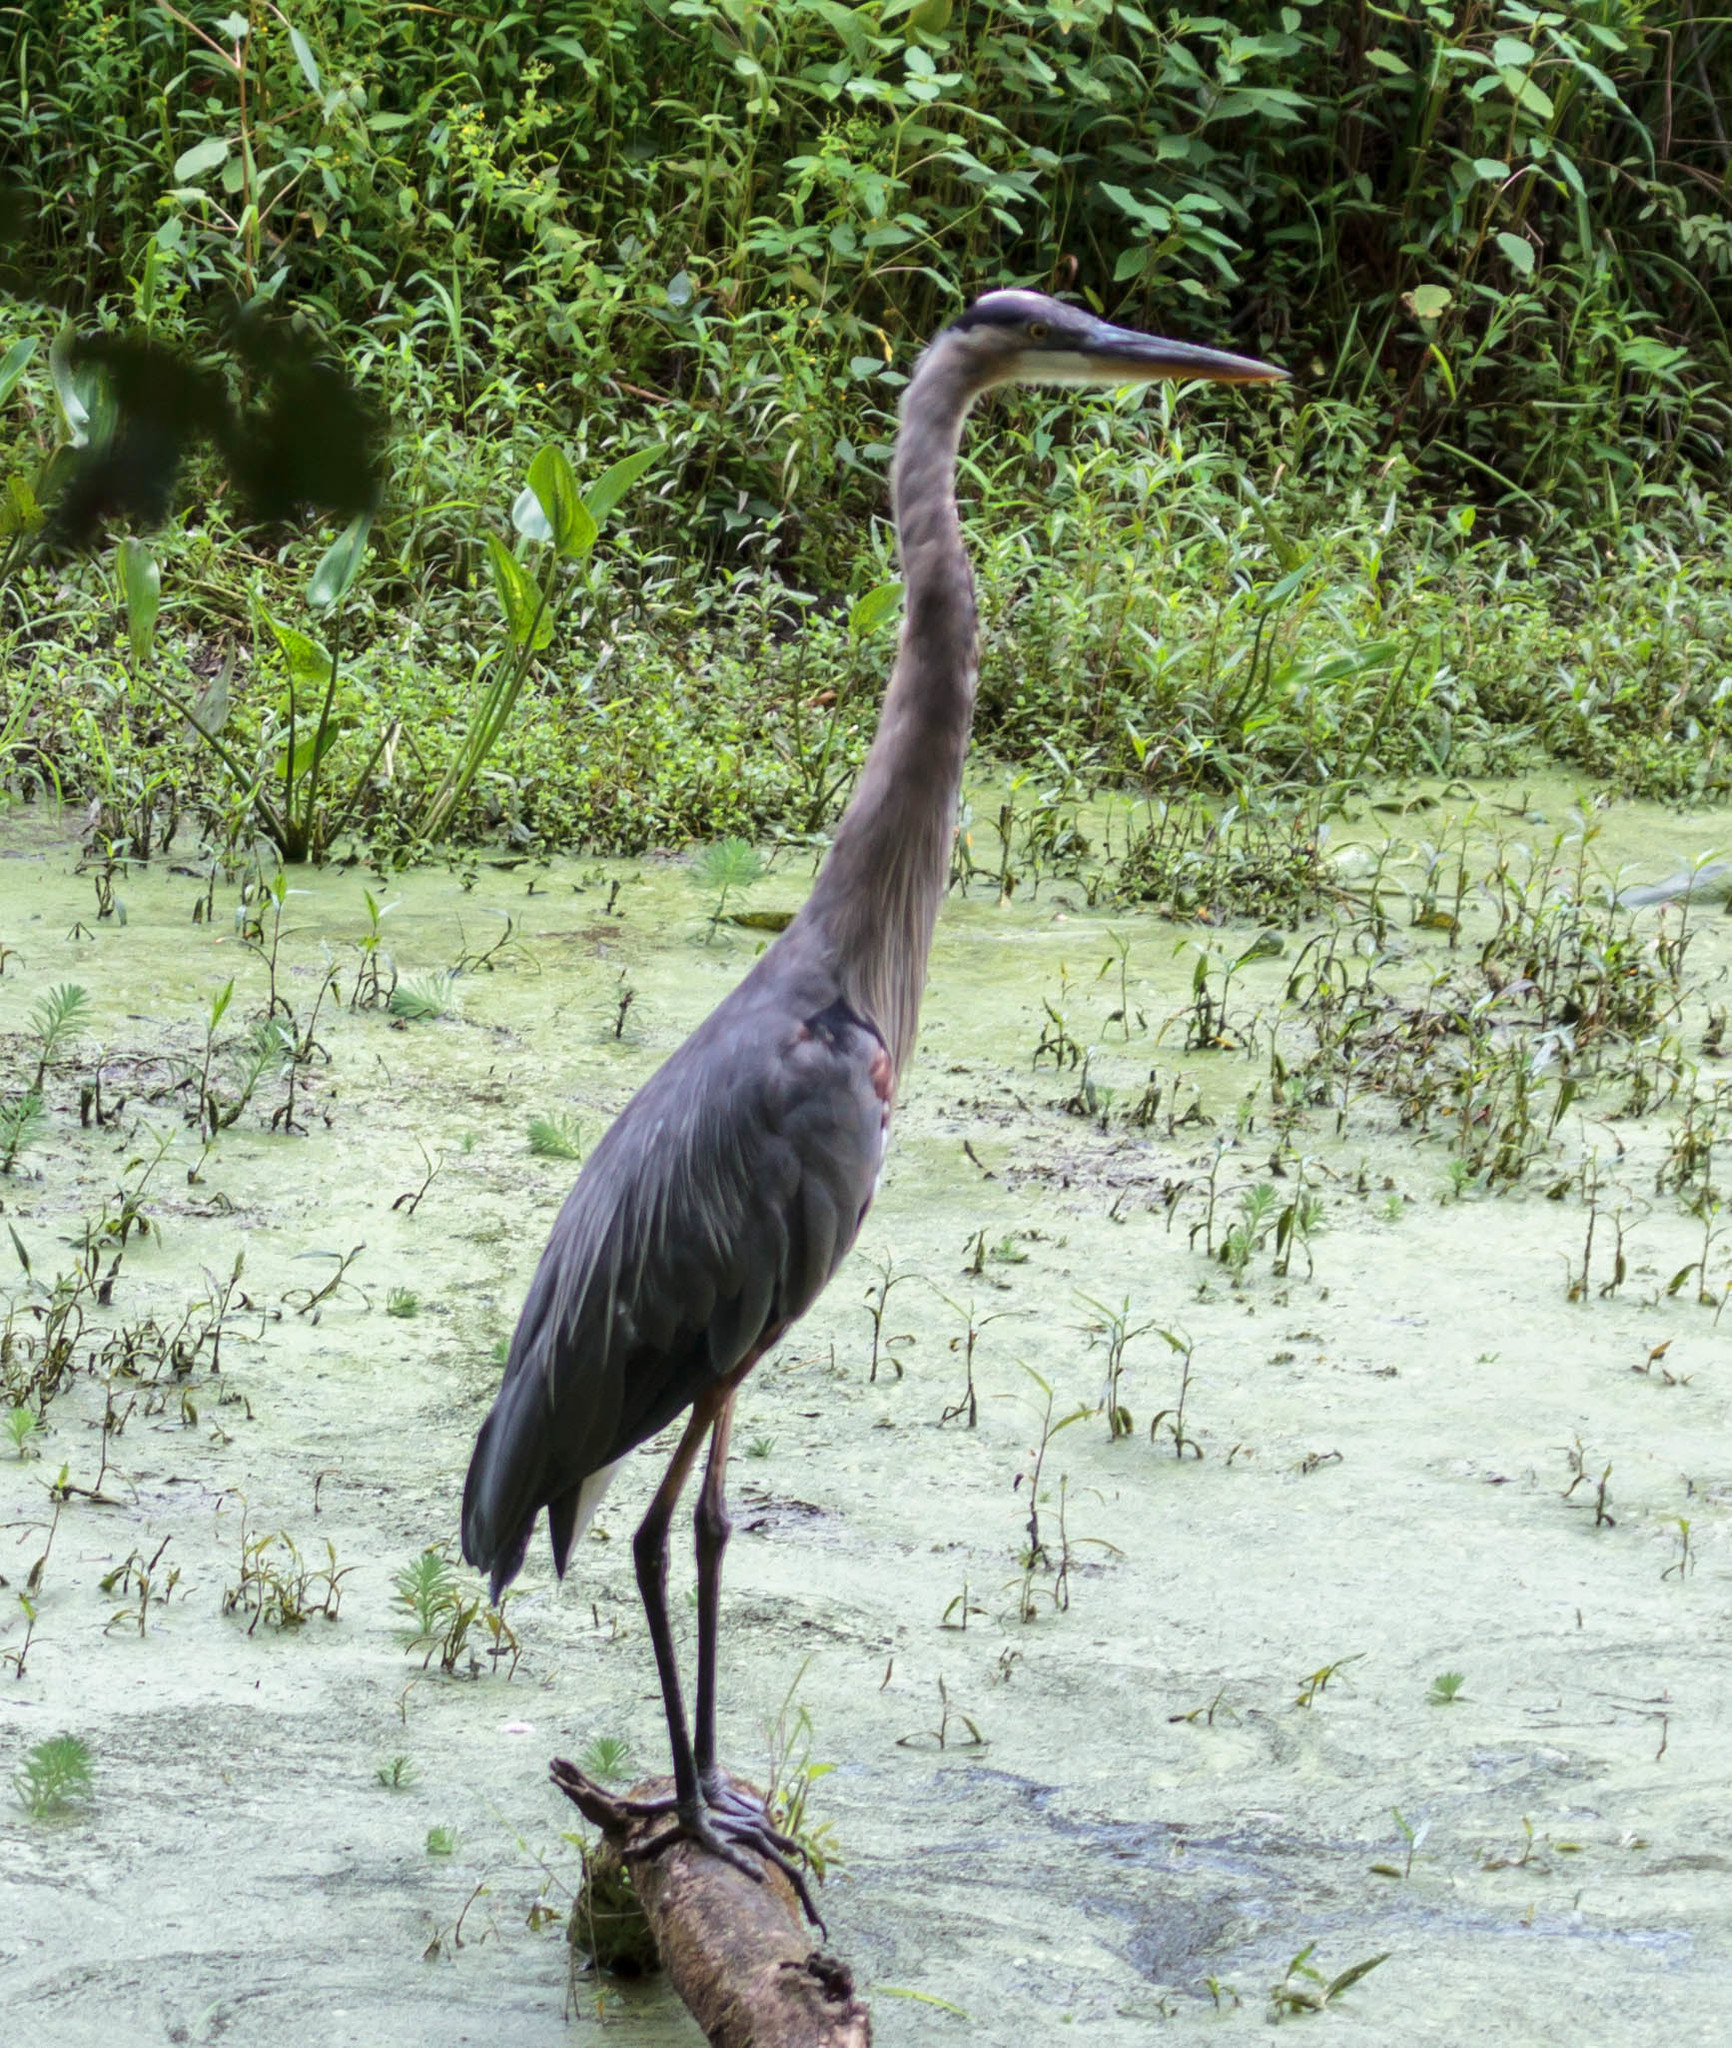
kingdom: Animalia
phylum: Chordata
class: Aves
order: Pelecaniformes
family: Ardeidae
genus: Ardea
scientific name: Ardea herodias
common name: Great blue heron
